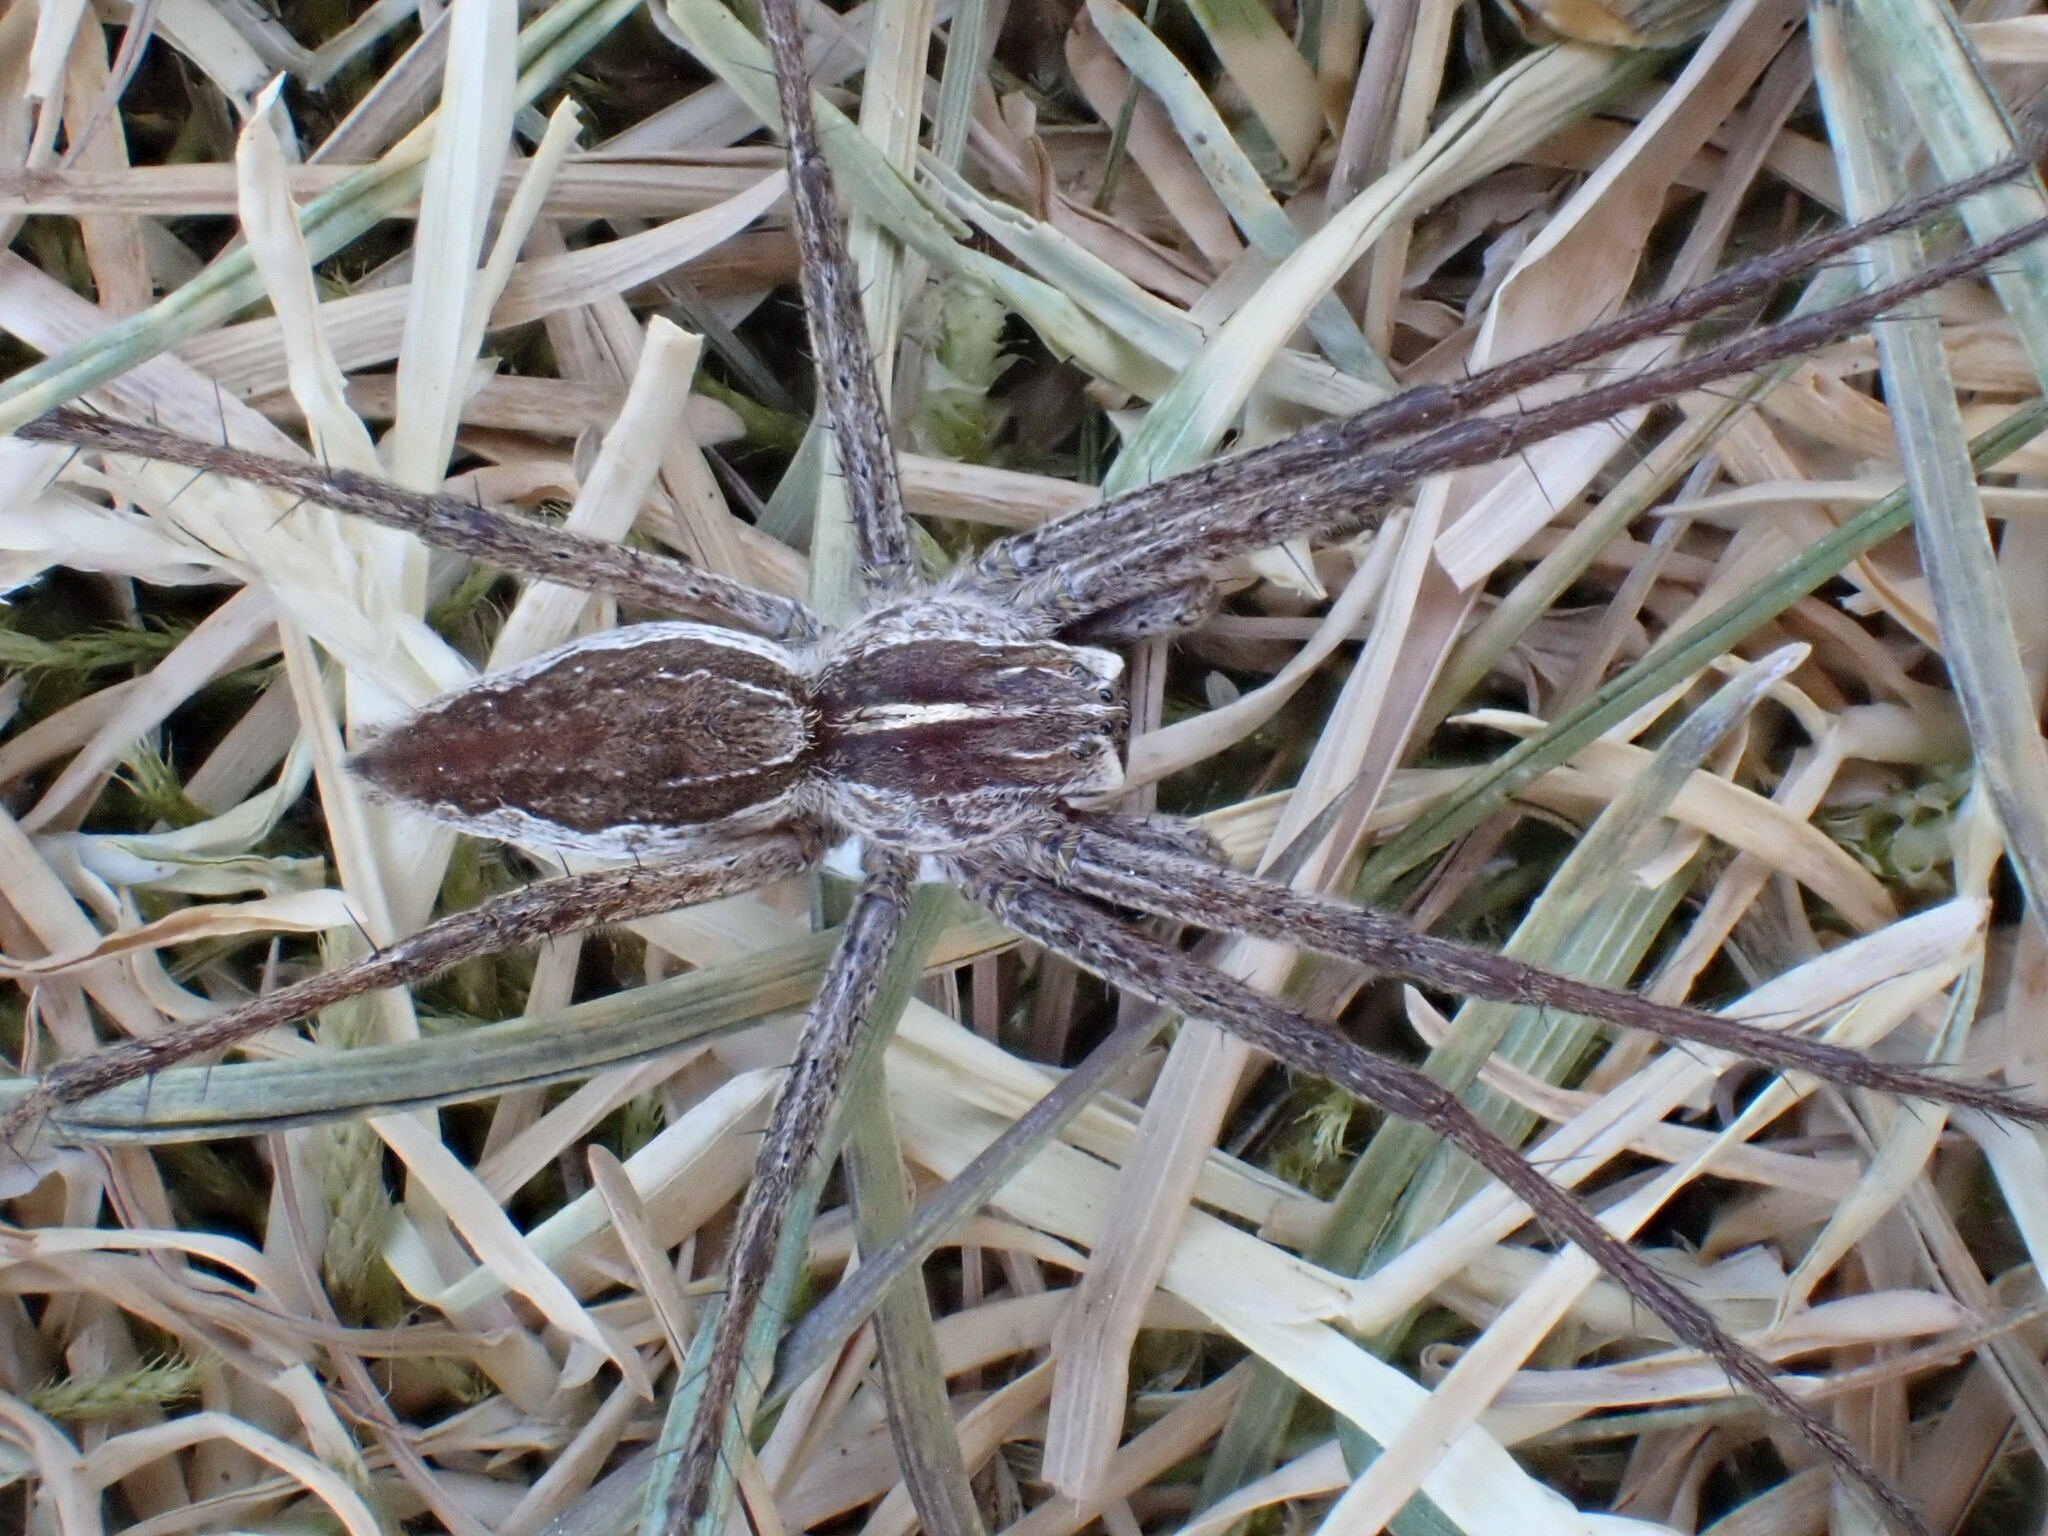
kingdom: Animalia
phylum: Arthropoda
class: Arachnida
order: Araneae
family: Pisauridae
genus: Pisaura
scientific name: Pisaura mirabilis
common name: Tent spider
